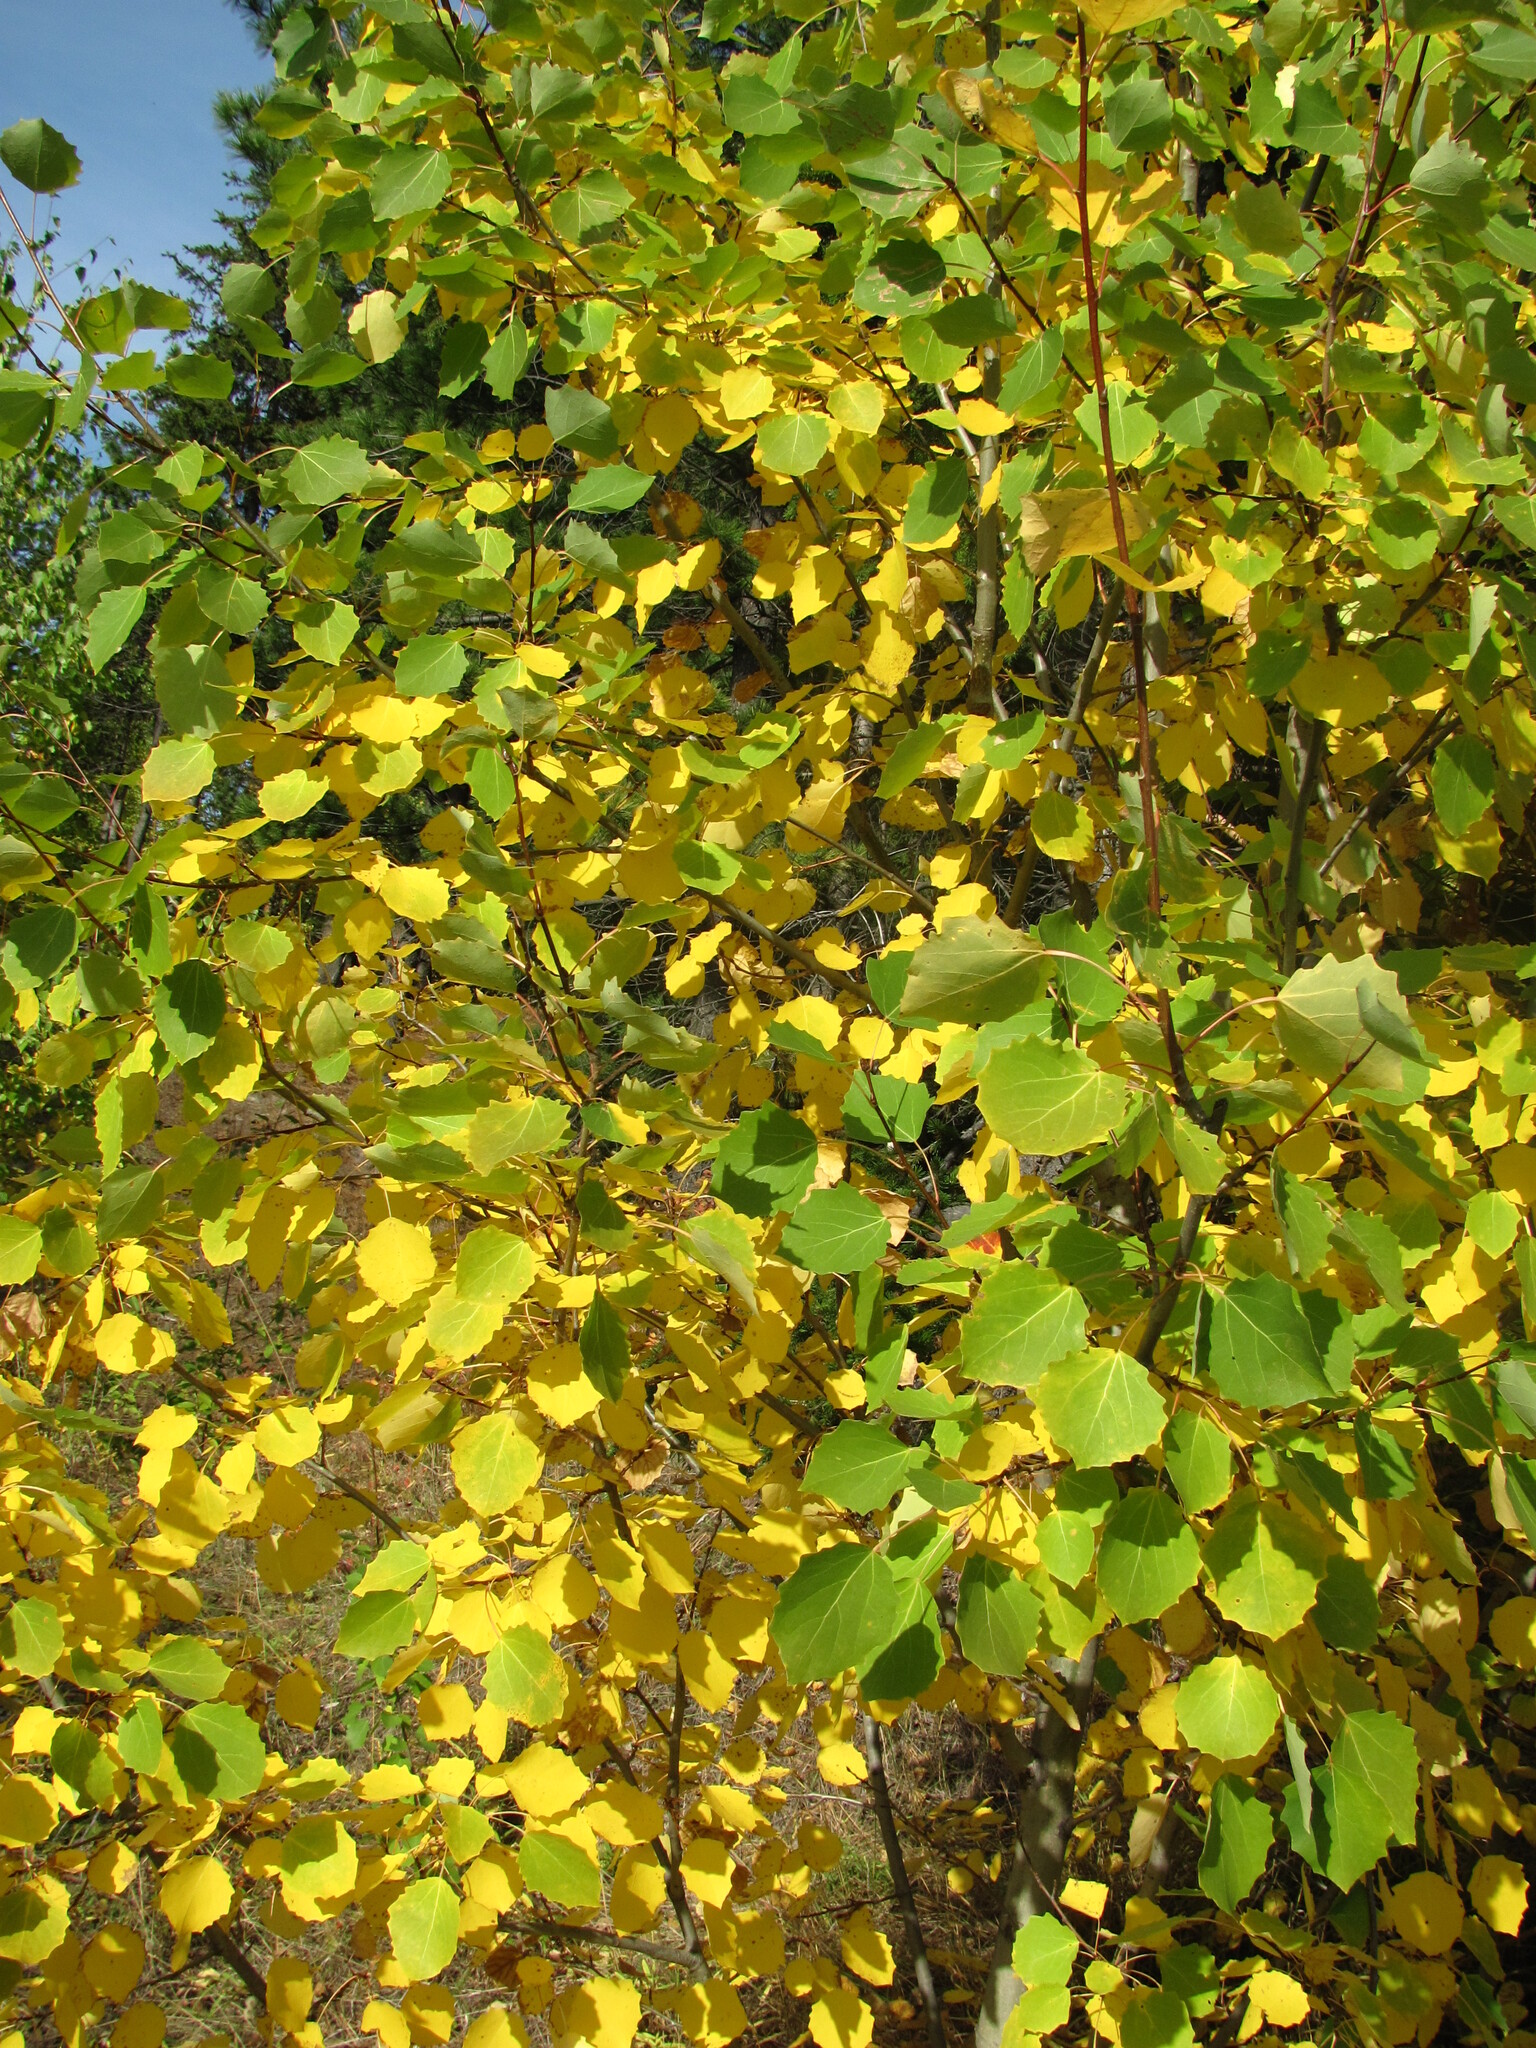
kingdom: Plantae
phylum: Tracheophyta
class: Magnoliopsida
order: Malpighiales
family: Salicaceae
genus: Populus
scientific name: Populus tremula
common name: European aspen
